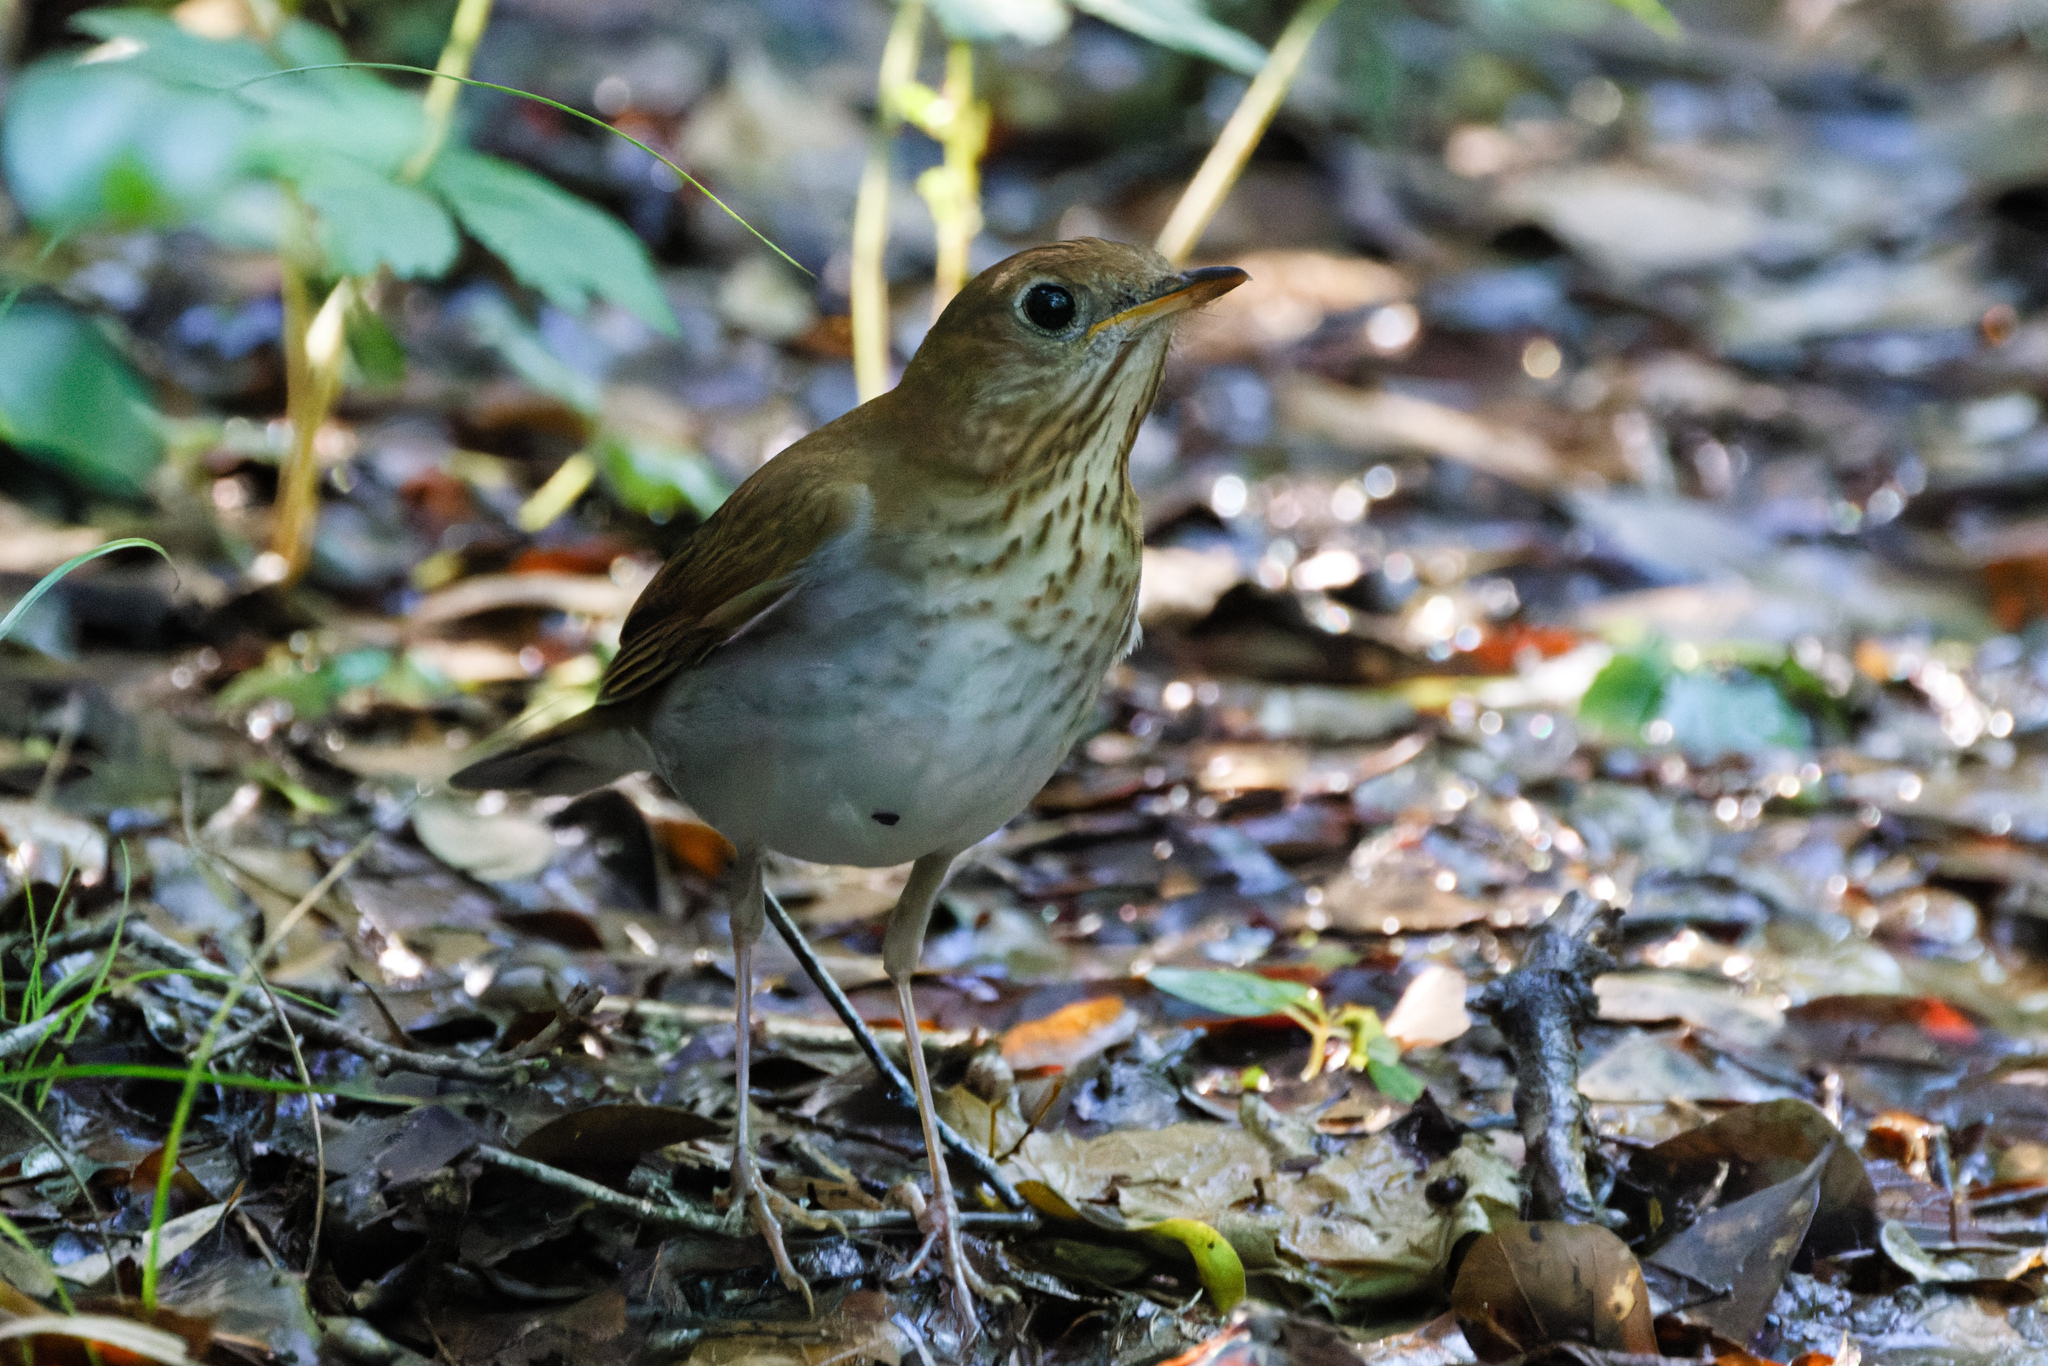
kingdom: Animalia
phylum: Chordata
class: Aves
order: Passeriformes
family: Turdidae
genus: Catharus
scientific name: Catharus fuscescens
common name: Veery
